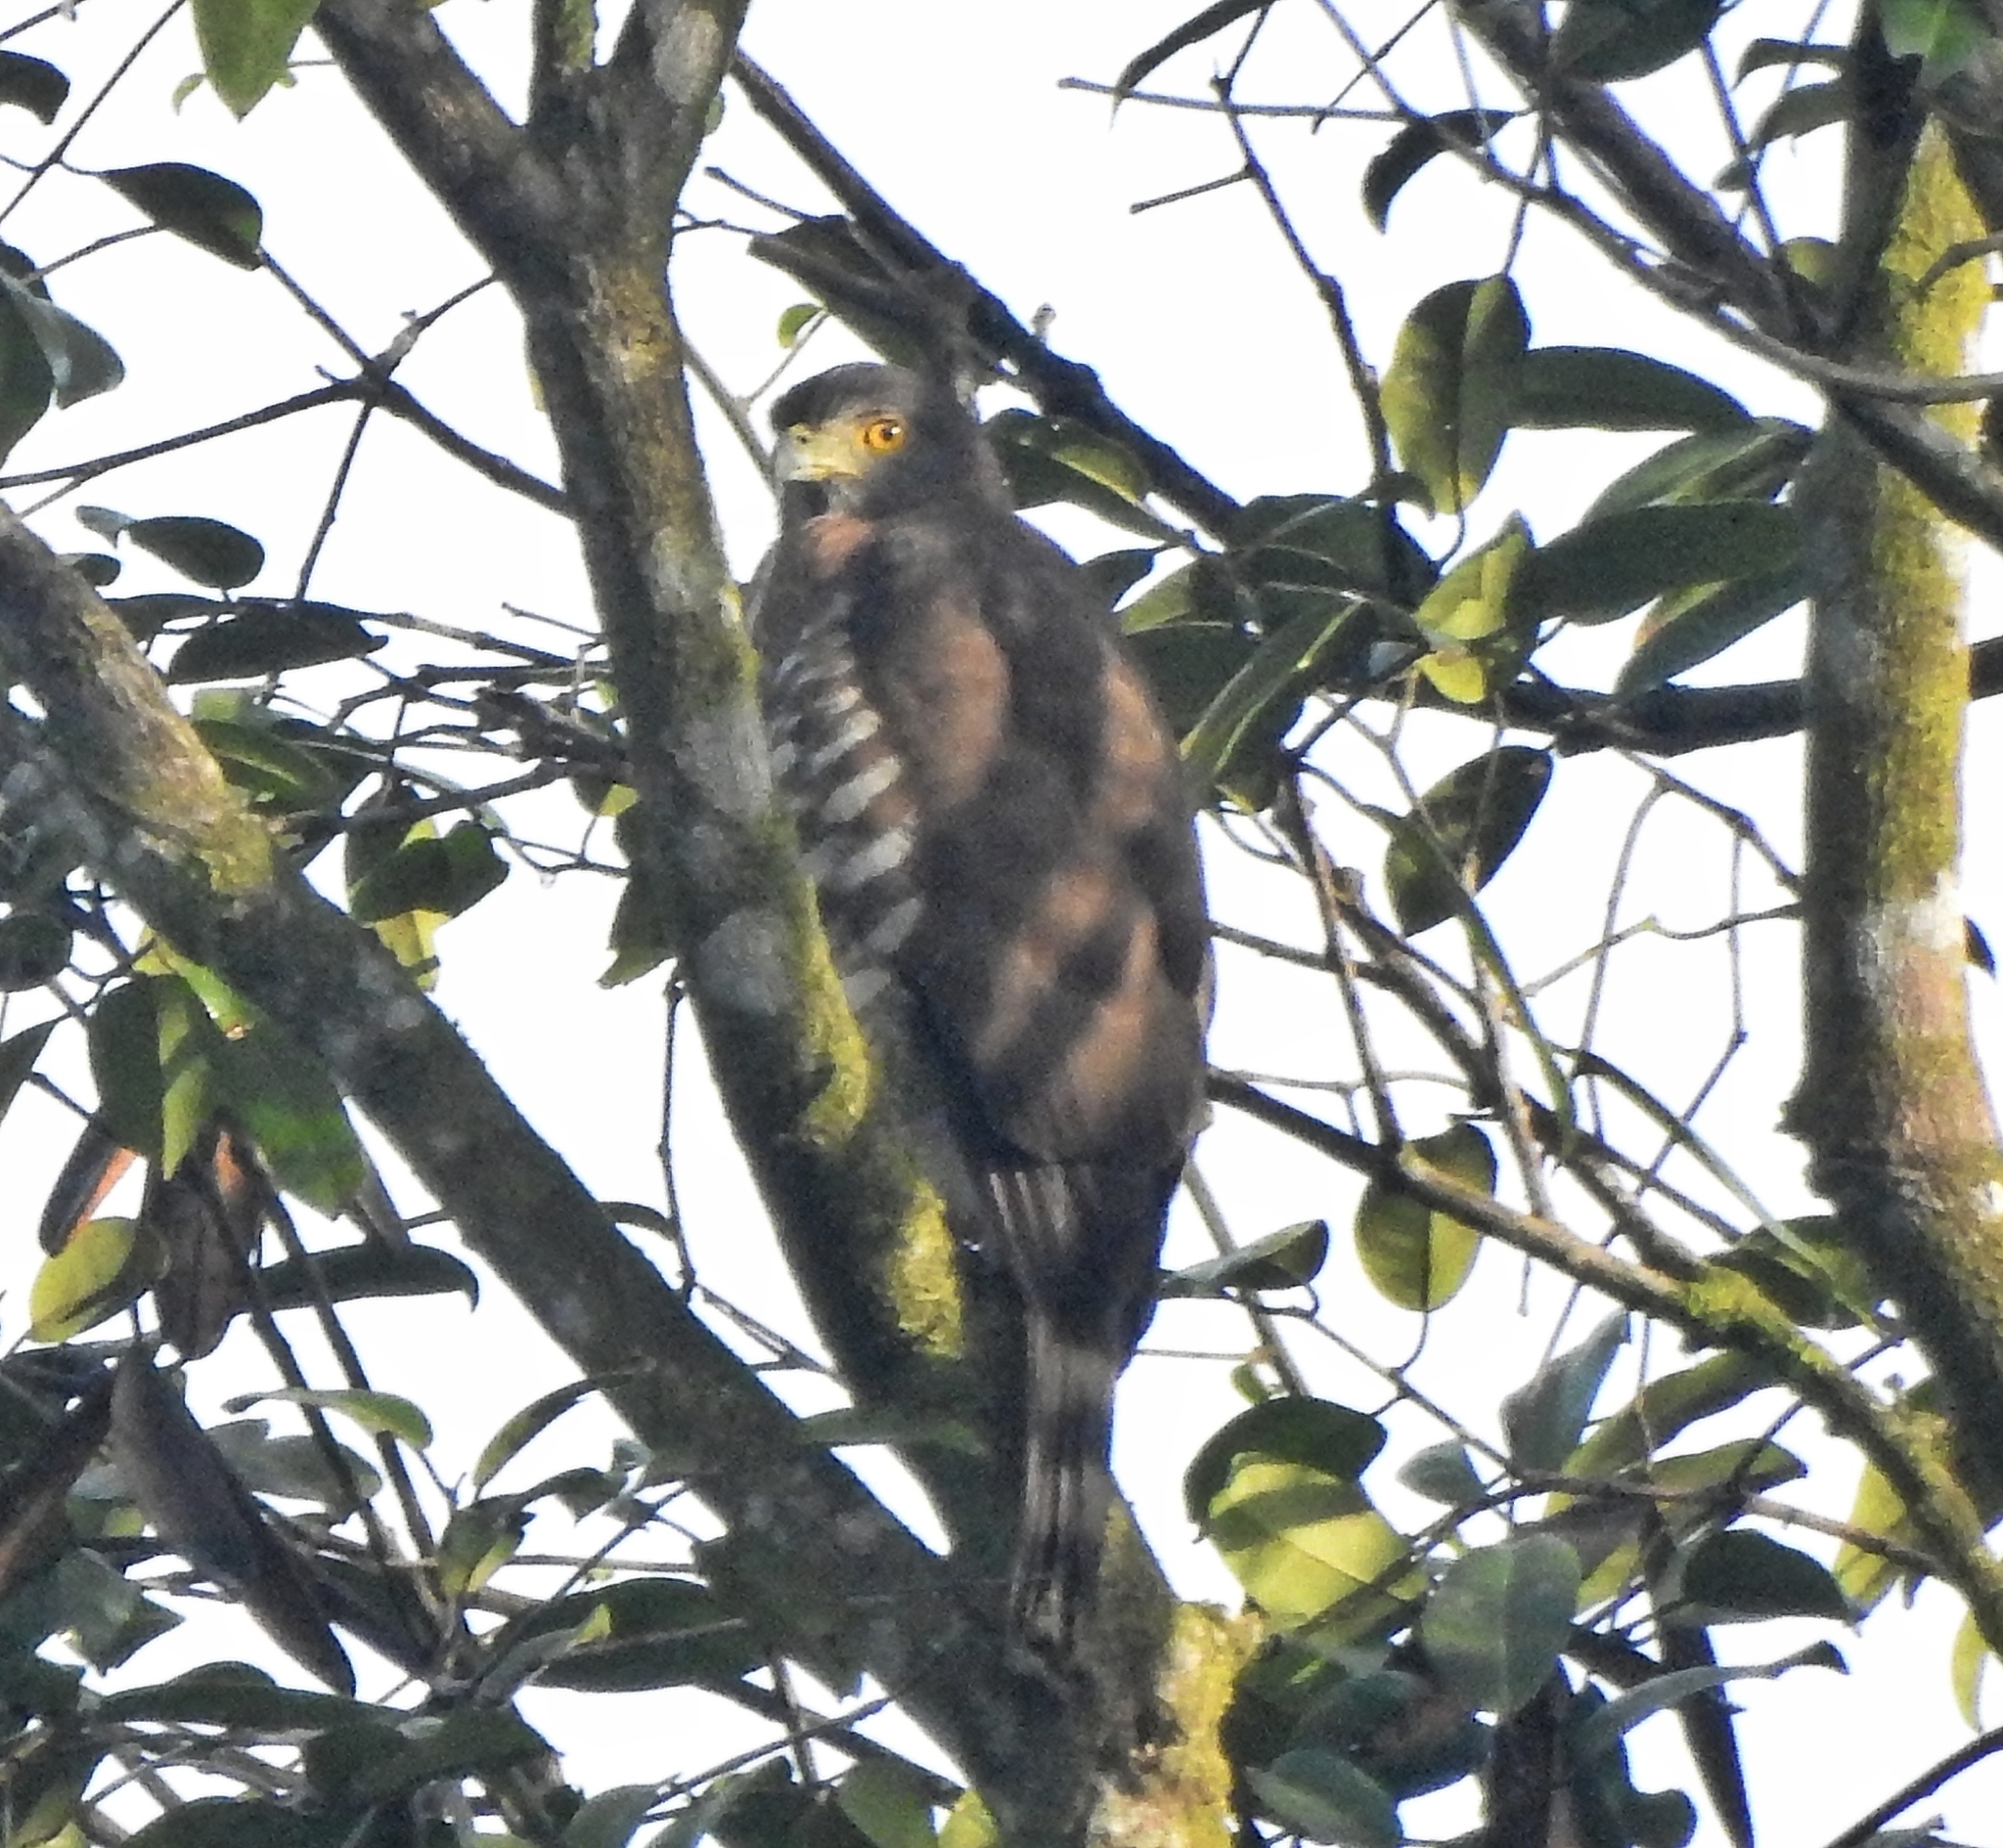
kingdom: Animalia
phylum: Chordata
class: Aves
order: Accipitriformes
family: Accipitridae
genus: Accipiter
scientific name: Accipiter trivirgatus
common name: Crested goshawk
